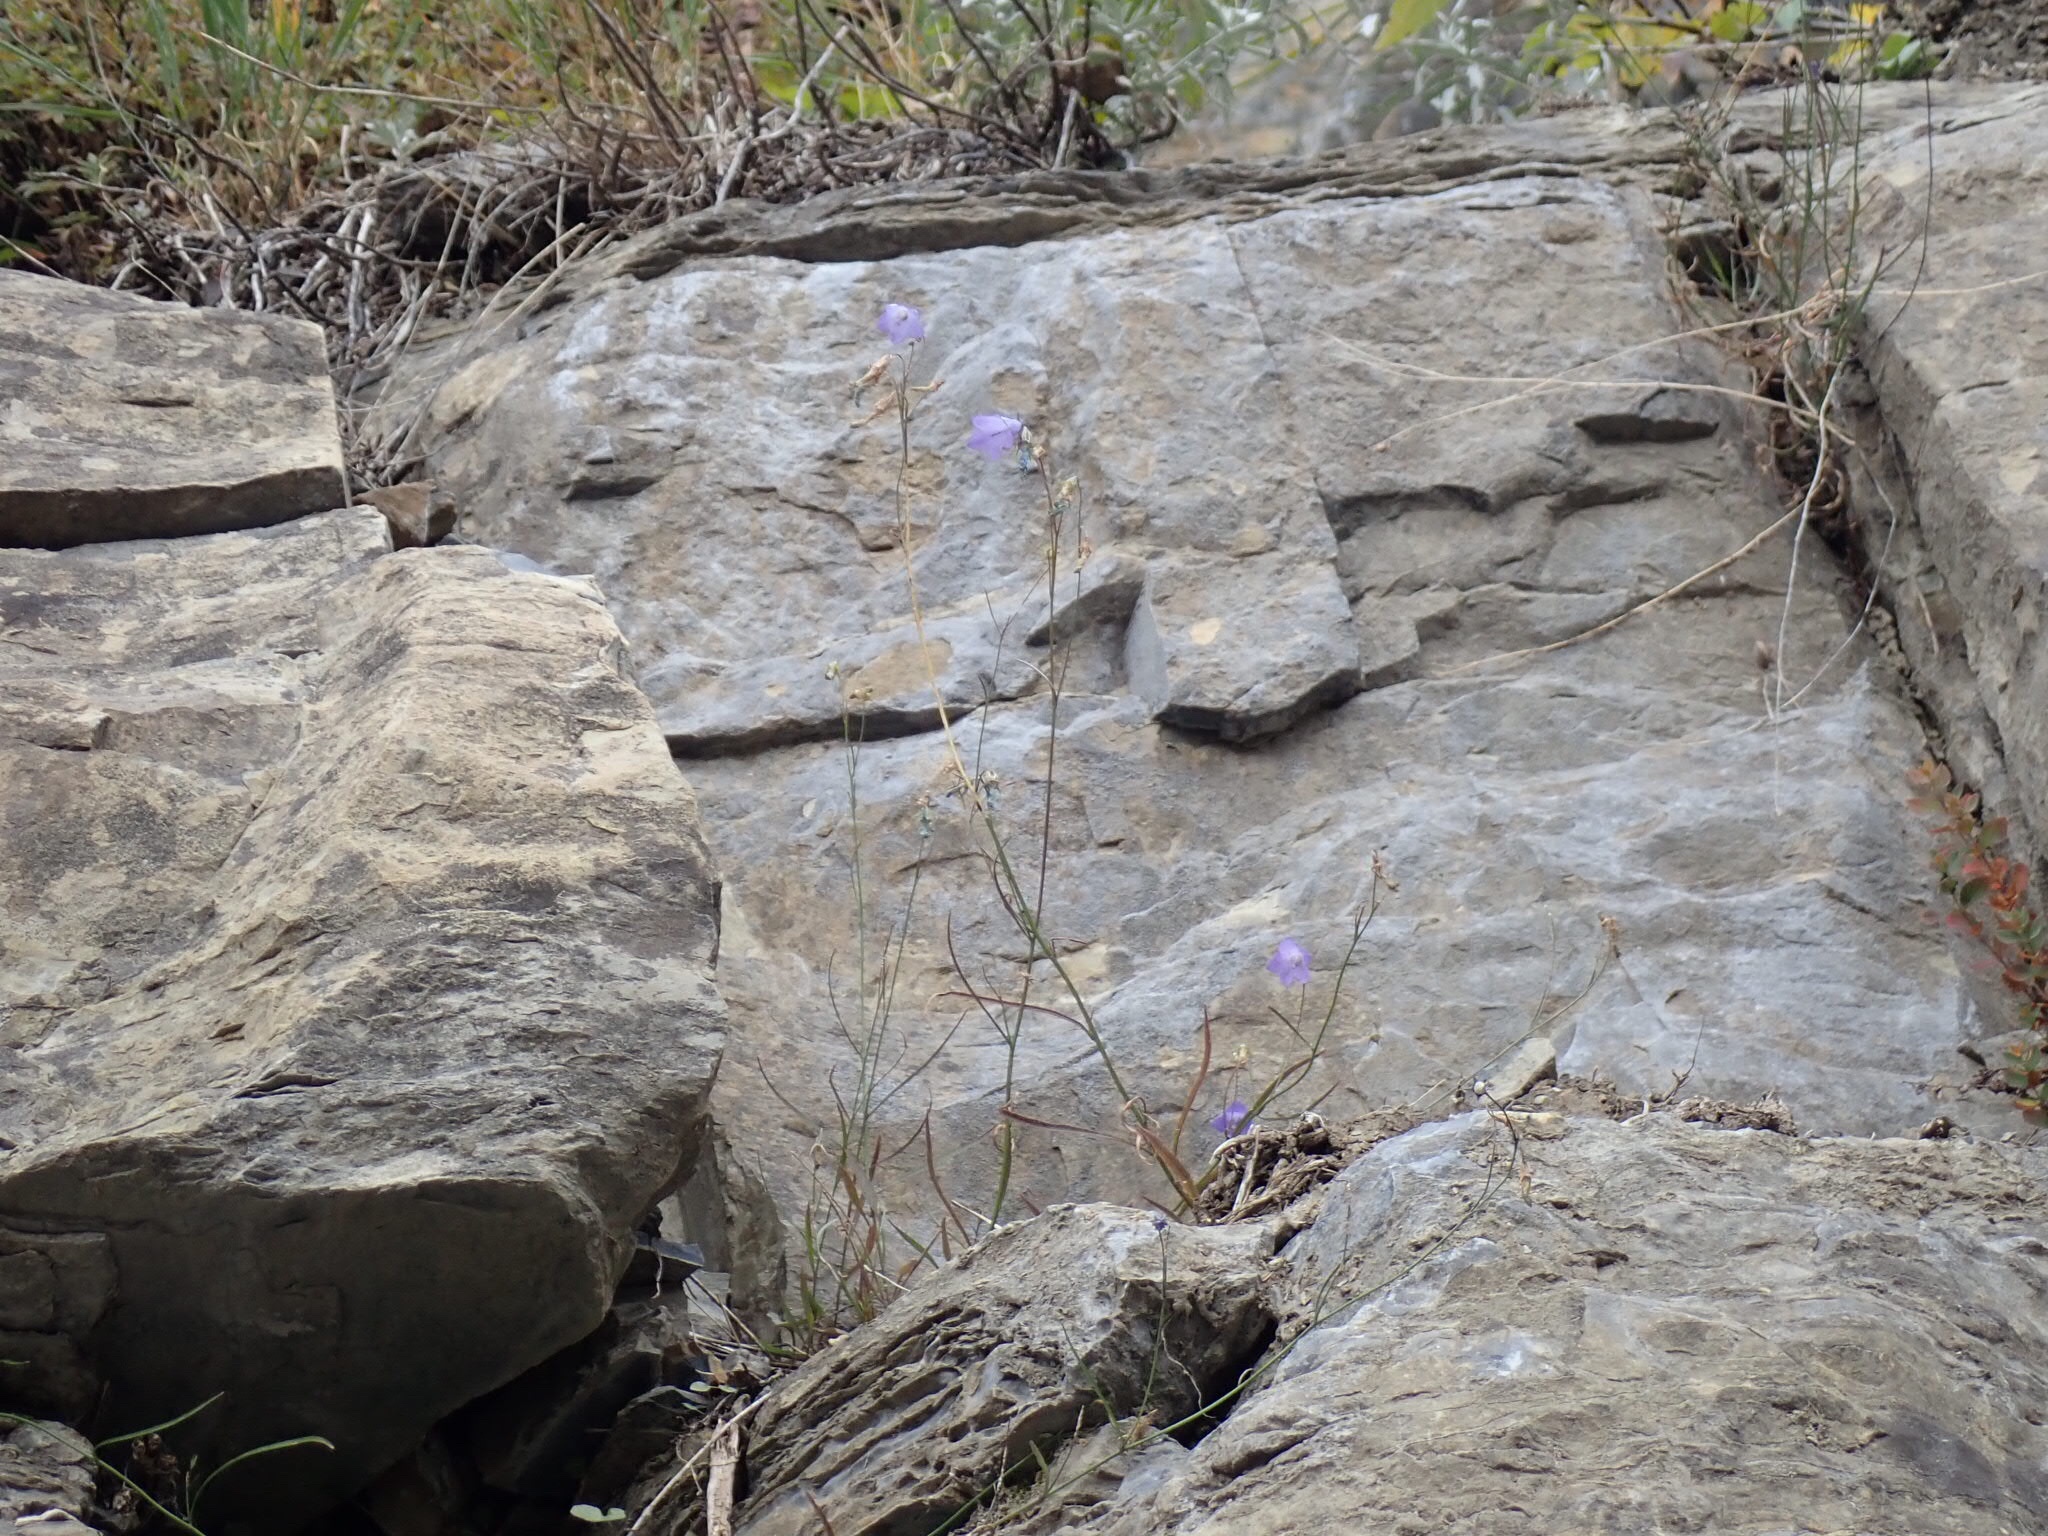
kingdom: Plantae
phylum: Tracheophyta
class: Magnoliopsida
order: Asterales
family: Campanulaceae
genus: Campanula
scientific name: Campanula petiolata
